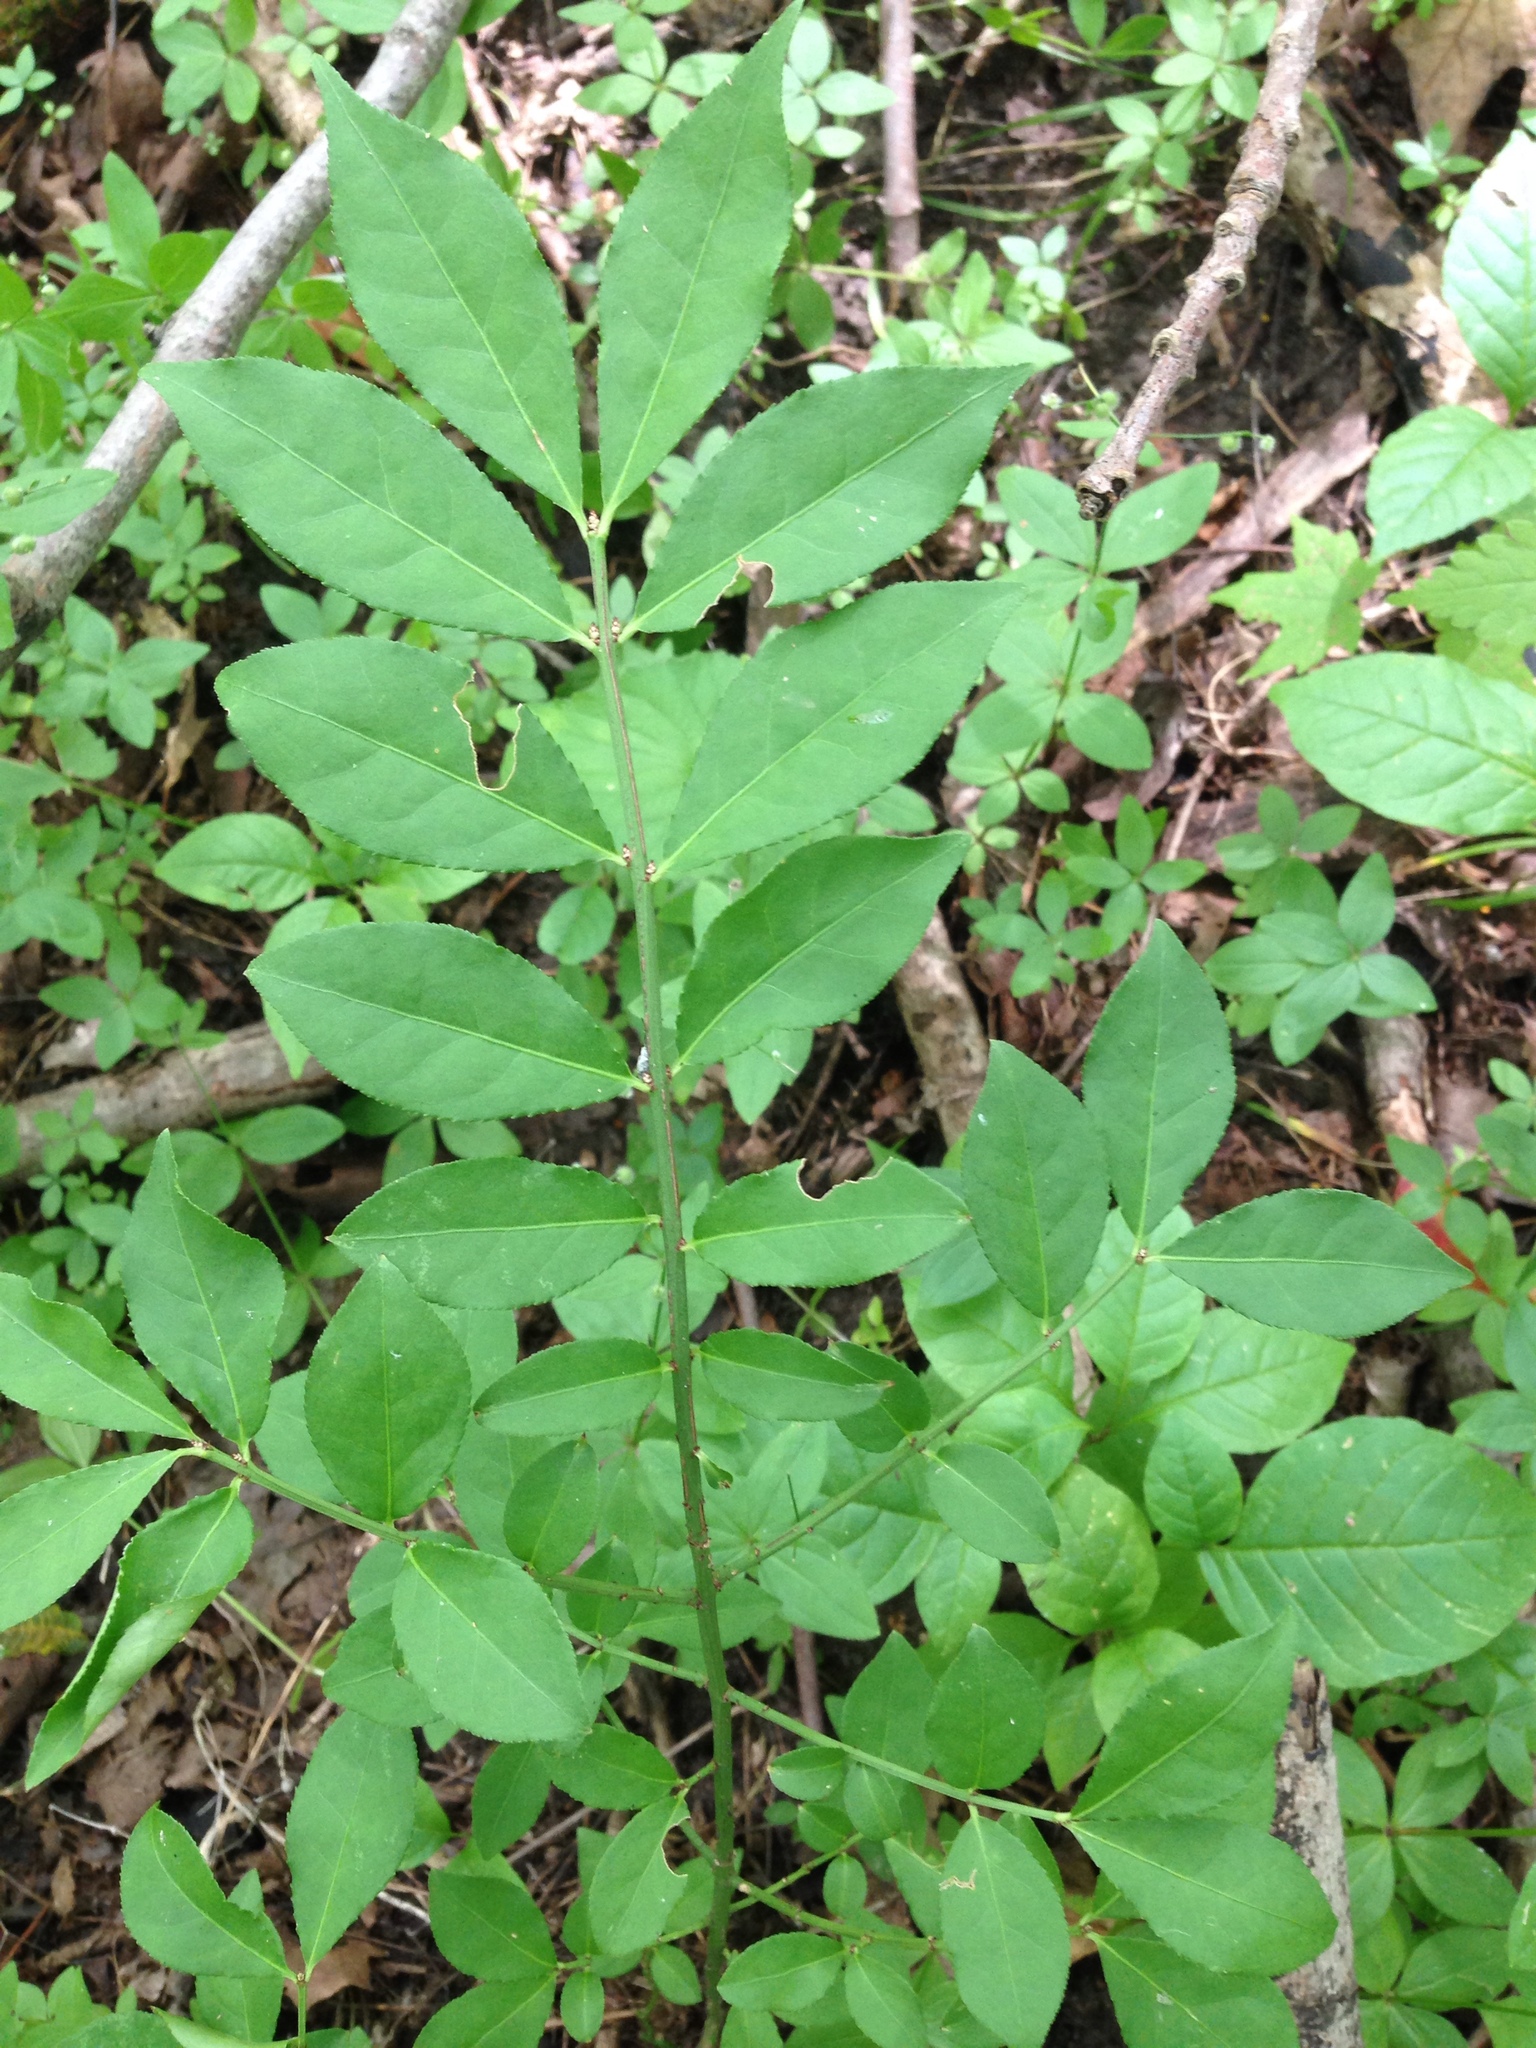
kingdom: Plantae
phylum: Tracheophyta
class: Magnoliopsida
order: Celastrales
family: Celastraceae
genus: Euonymus
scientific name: Euonymus alatus
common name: Winged euonymus
